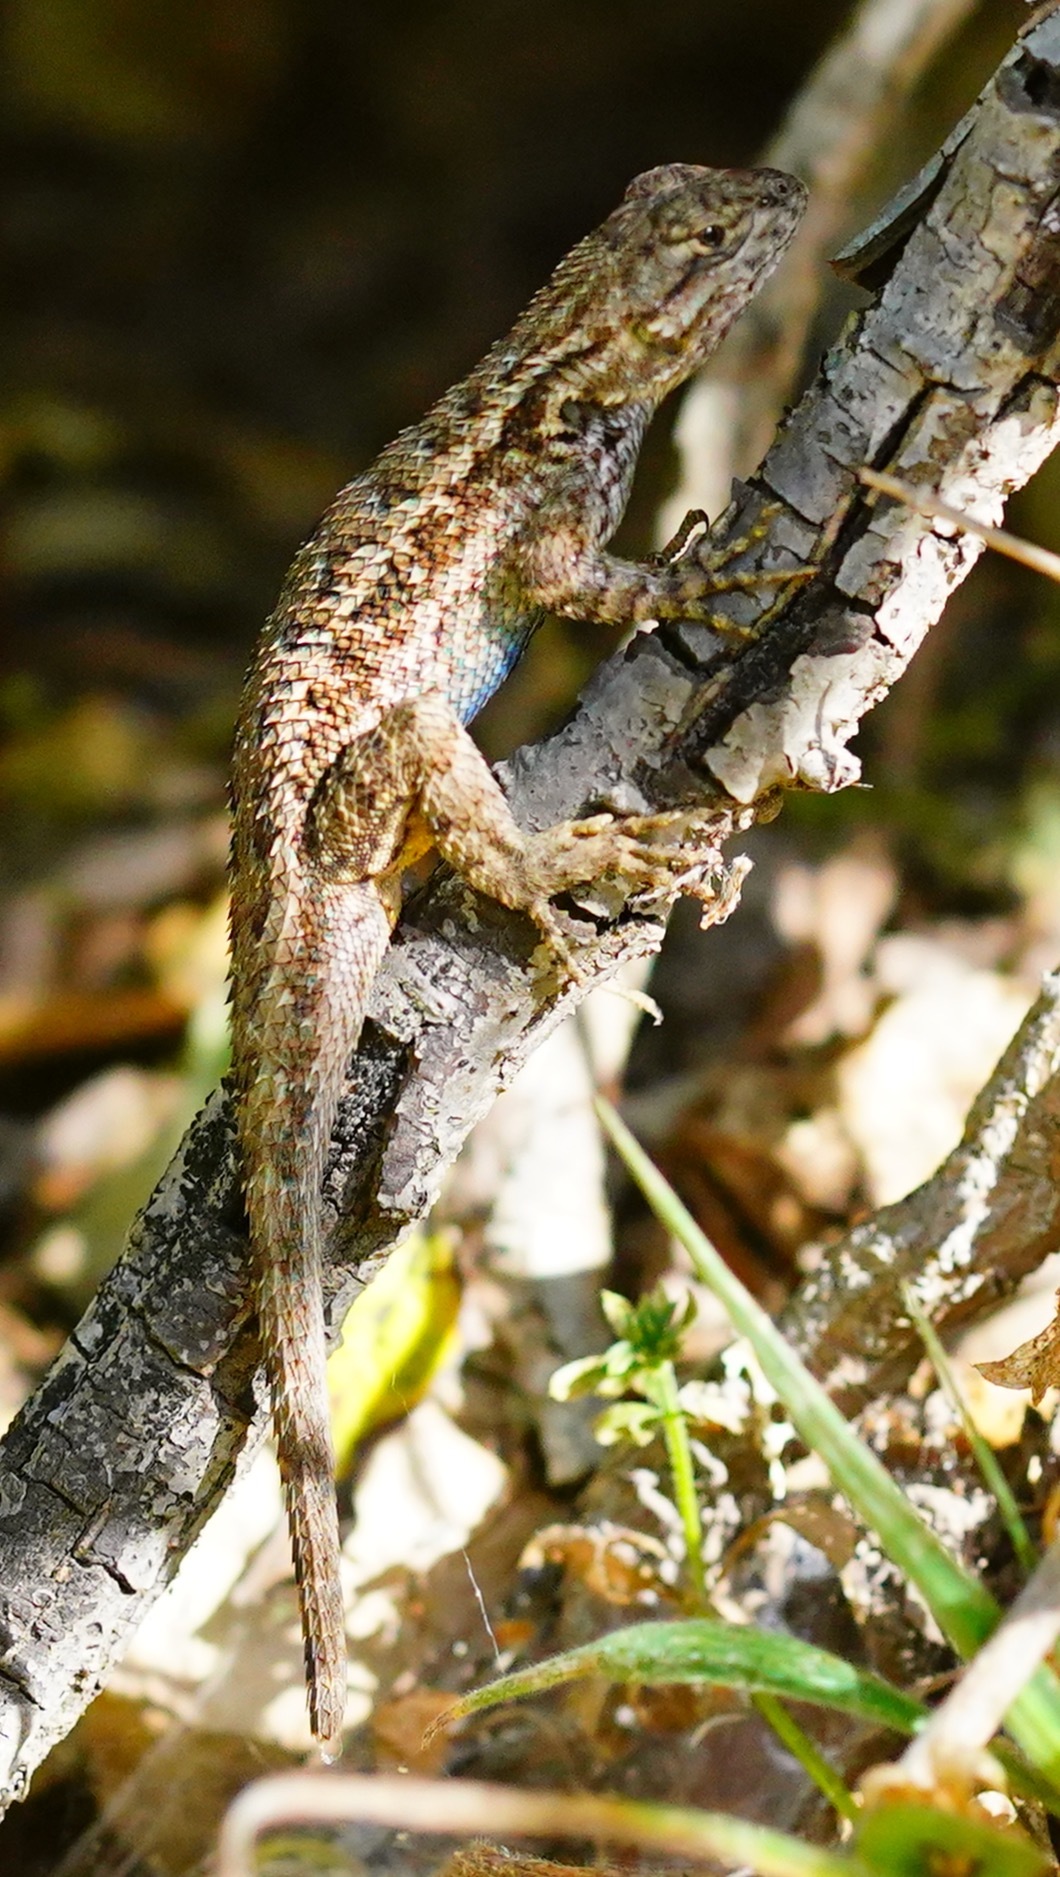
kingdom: Animalia
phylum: Chordata
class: Squamata
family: Phrynosomatidae
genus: Sceloporus
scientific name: Sceloporus occidentalis
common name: Western fence lizard
